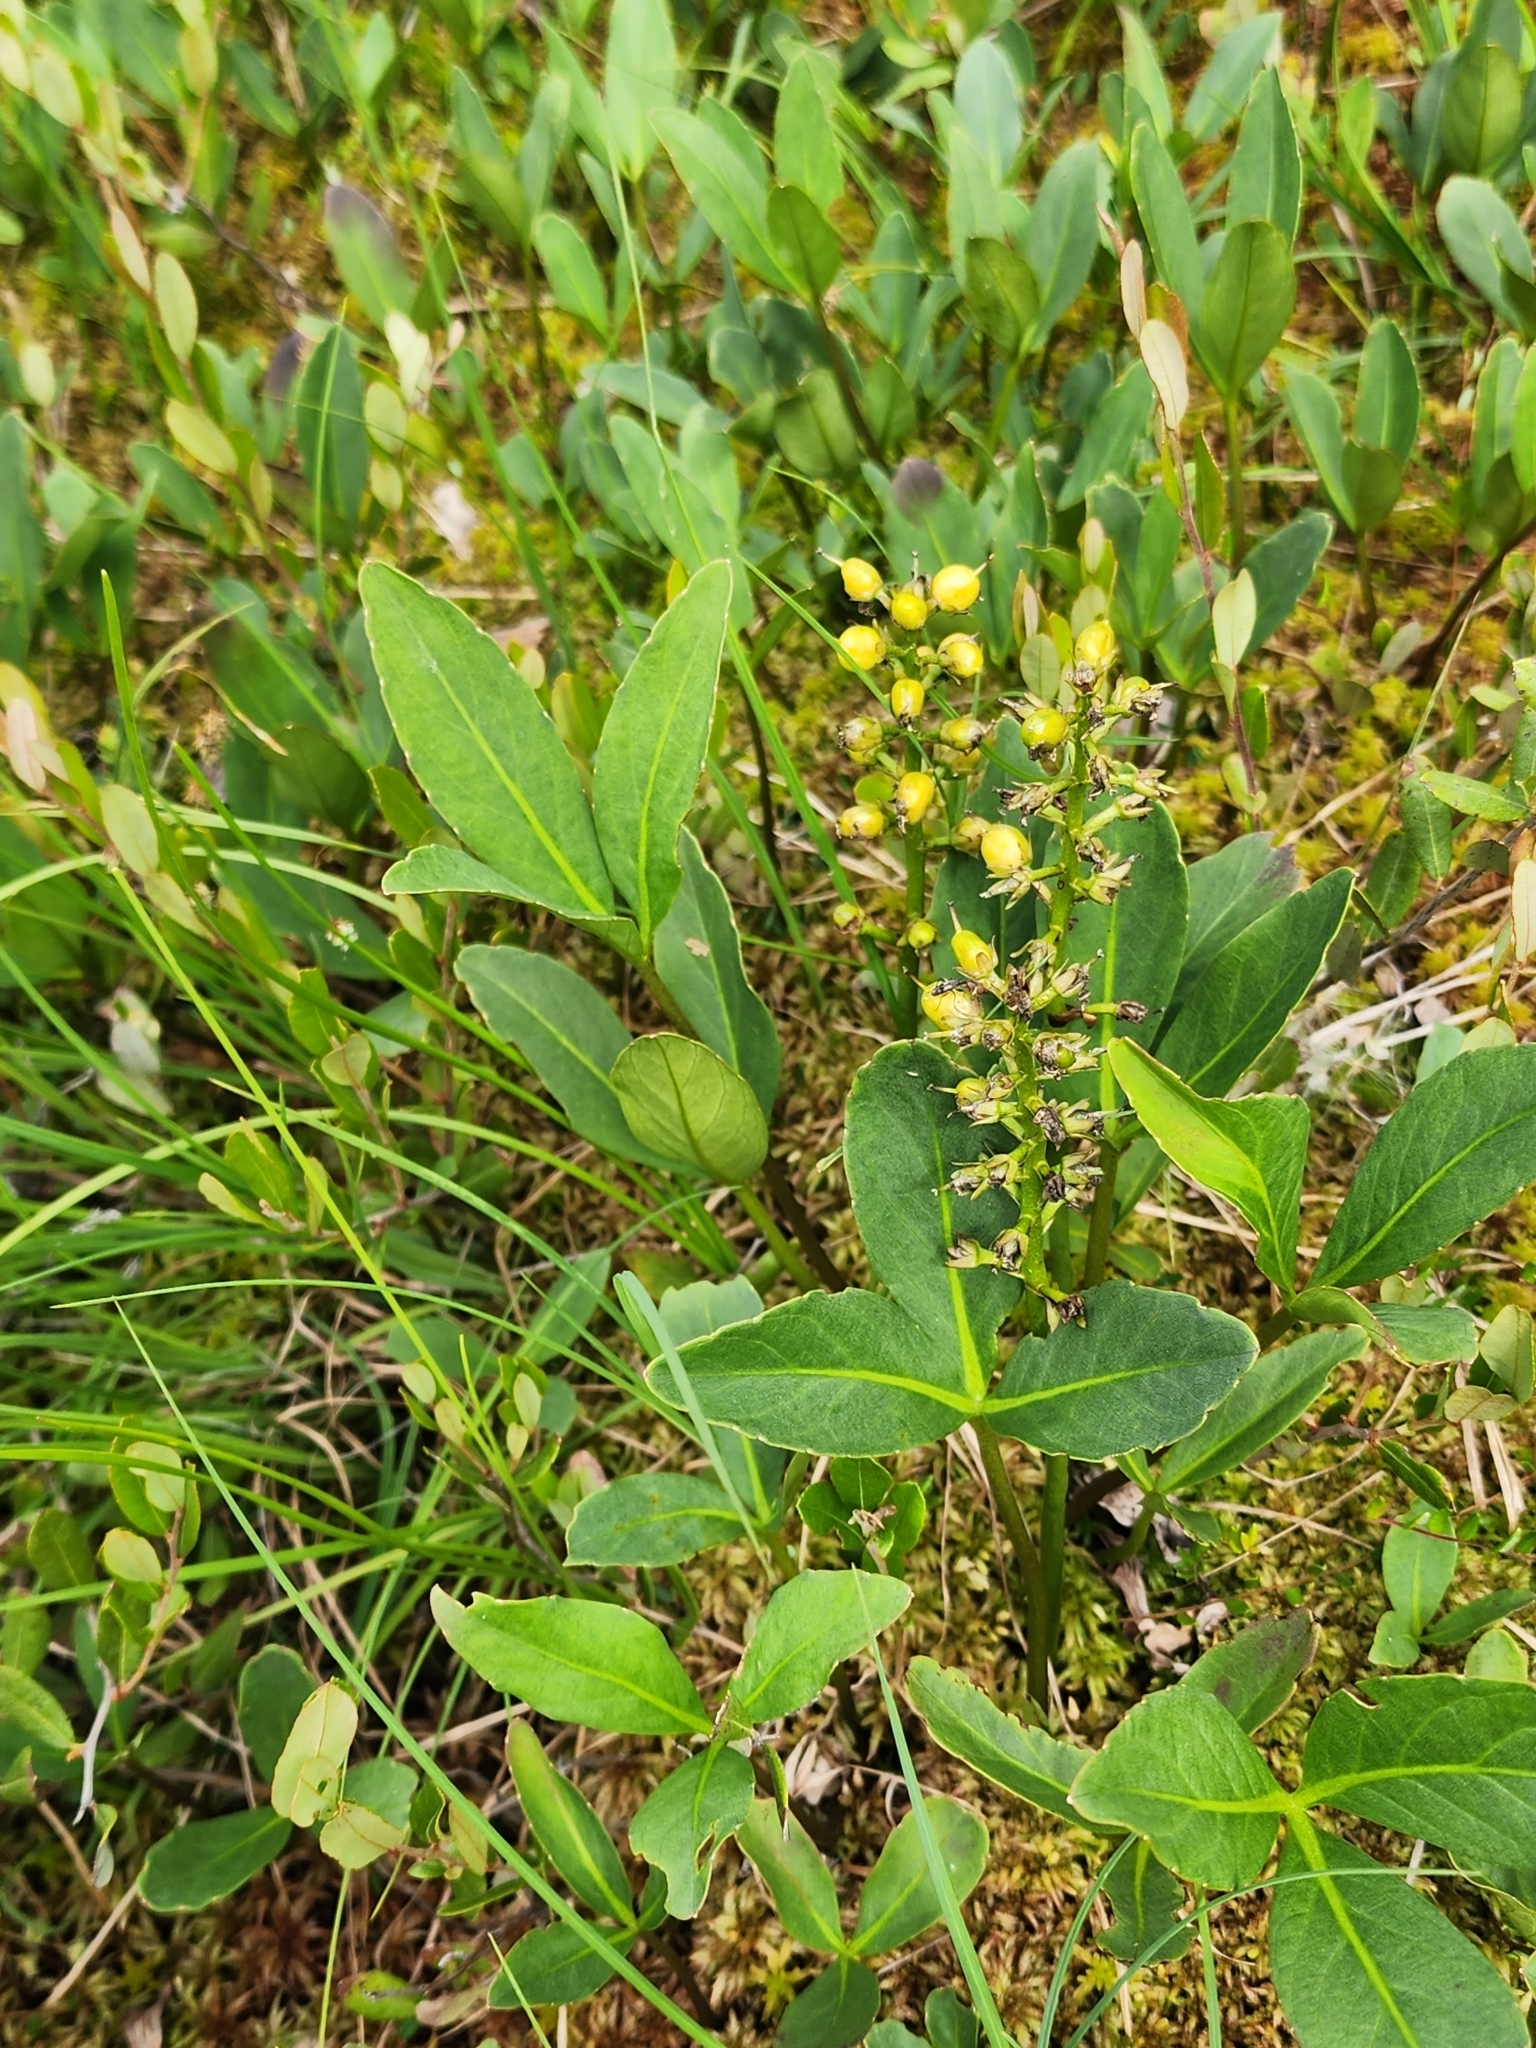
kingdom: Plantae
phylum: Tracheophyta
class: Magnoliopsida
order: Asterales
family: Menyanthaceae
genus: Menyanthes
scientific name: Menyanthes trifoliata
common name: Bogbean
